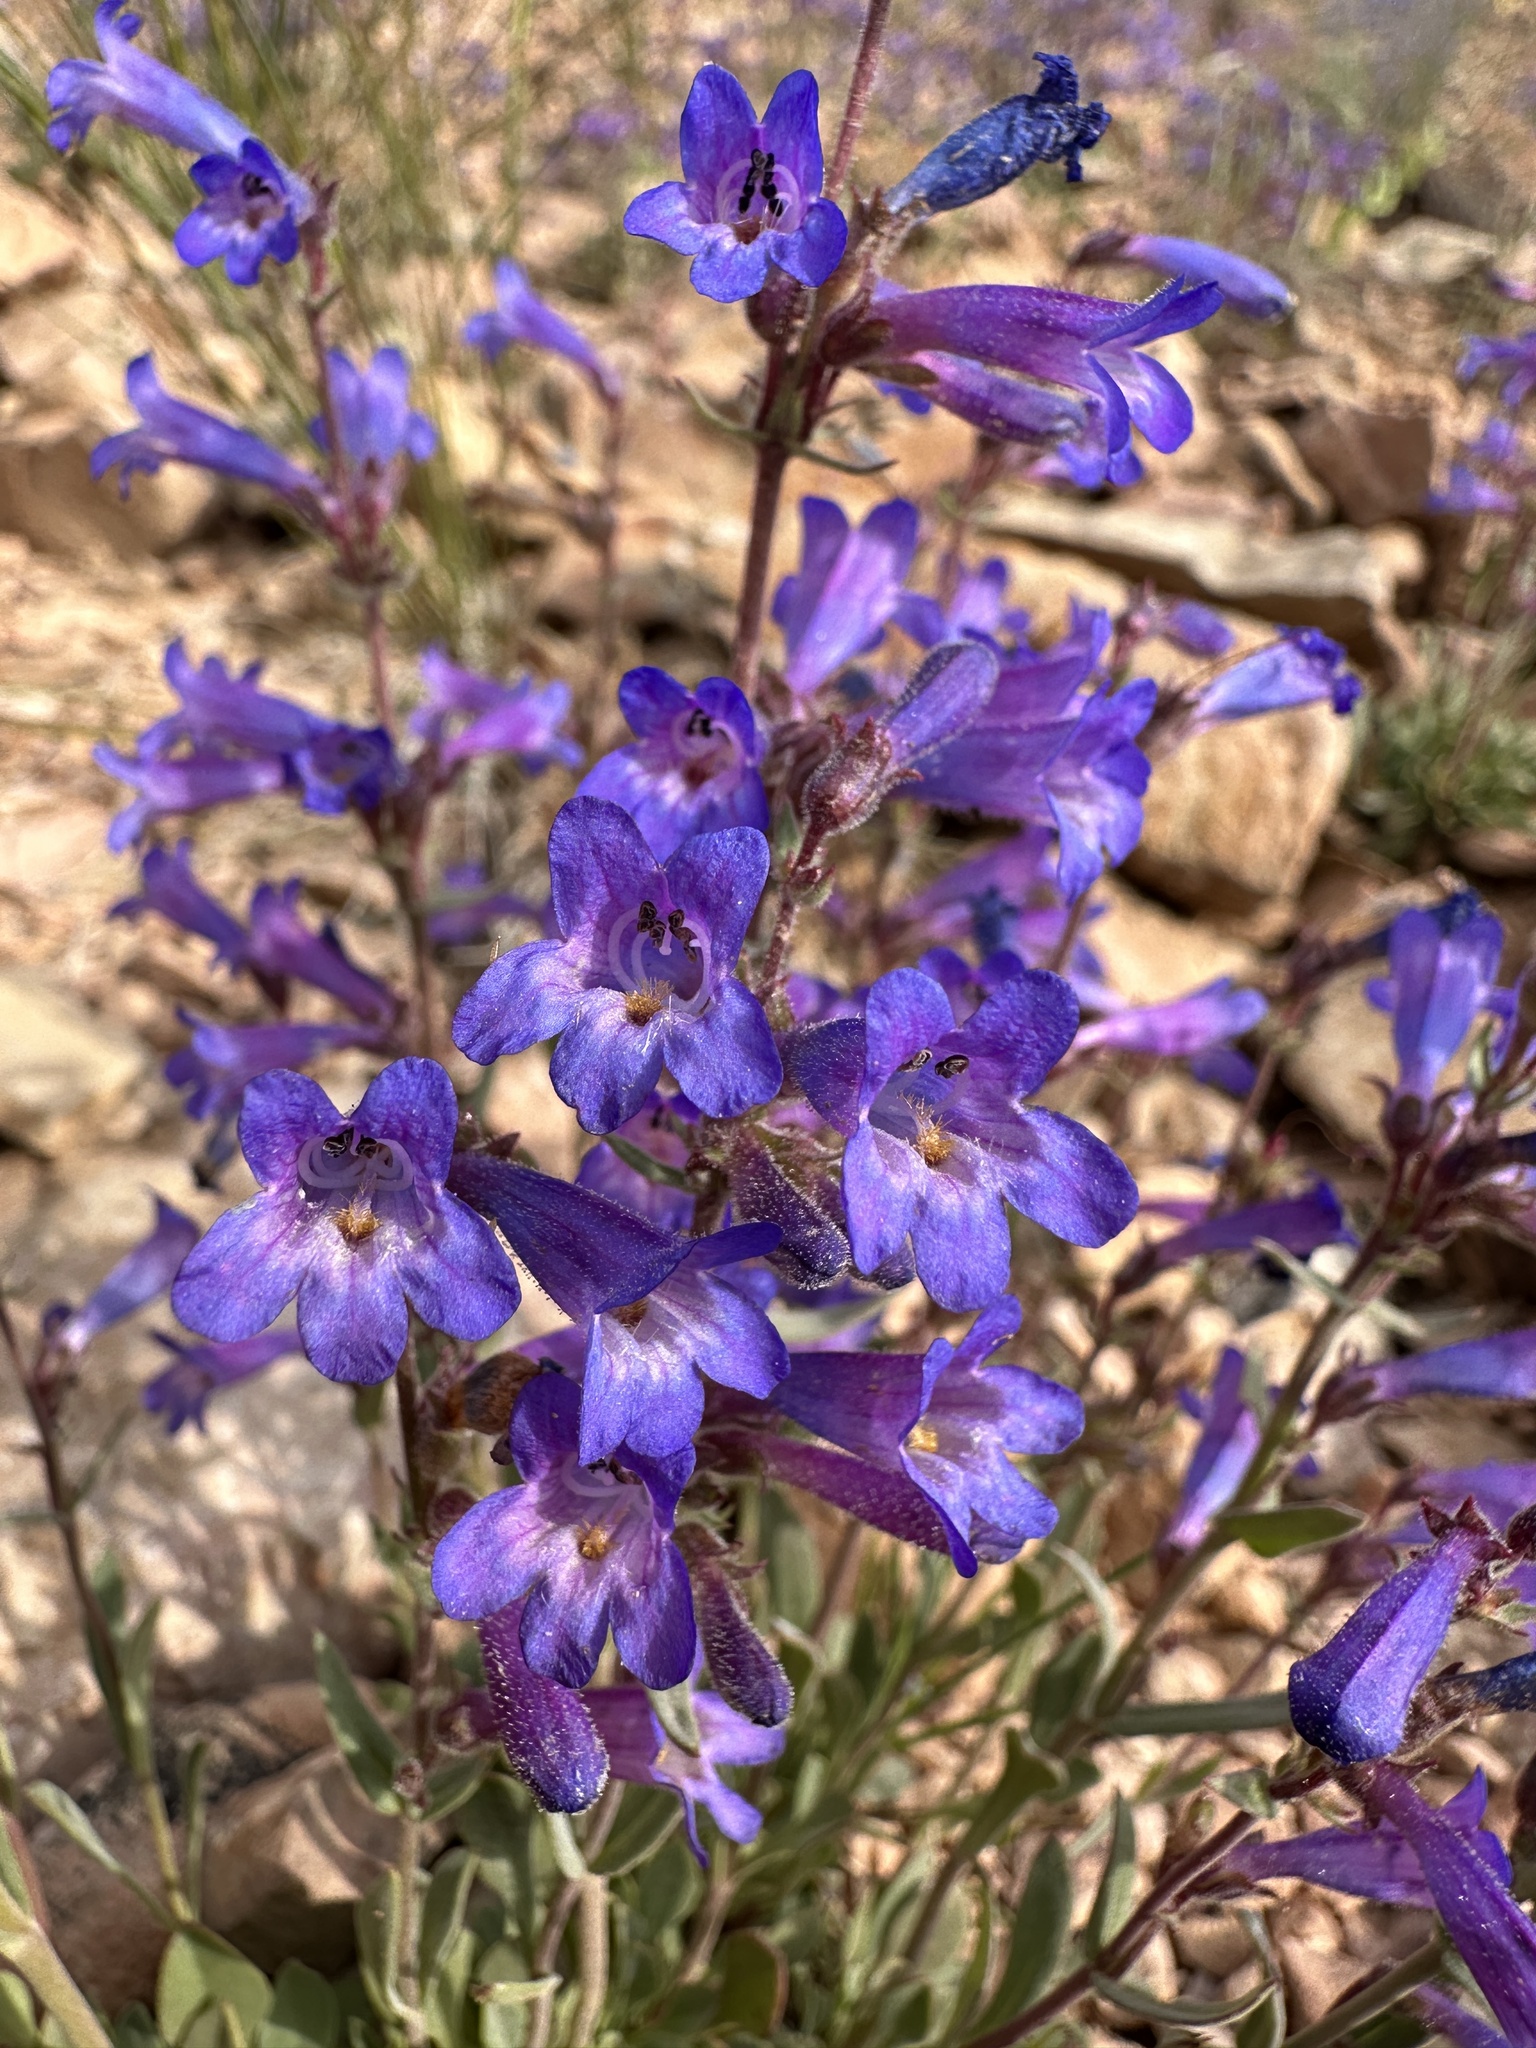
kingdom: Plantae
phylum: Tracheophyta
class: Magnoliopsida
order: Lamiales
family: Plantaginaceae
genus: Penstemon
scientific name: Penstemon humilis
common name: Low penstemon
